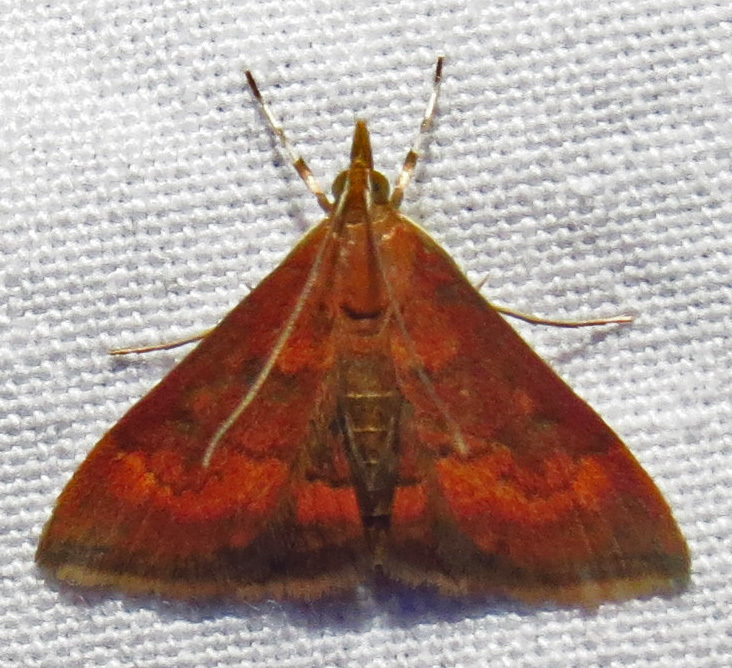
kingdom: Animalia
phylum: Arthropoda
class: Insecta
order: Lepidoptera
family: Crambidae
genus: Pyrausta
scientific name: Pyrausta rubricalis
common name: Variable reddish pyrausta
